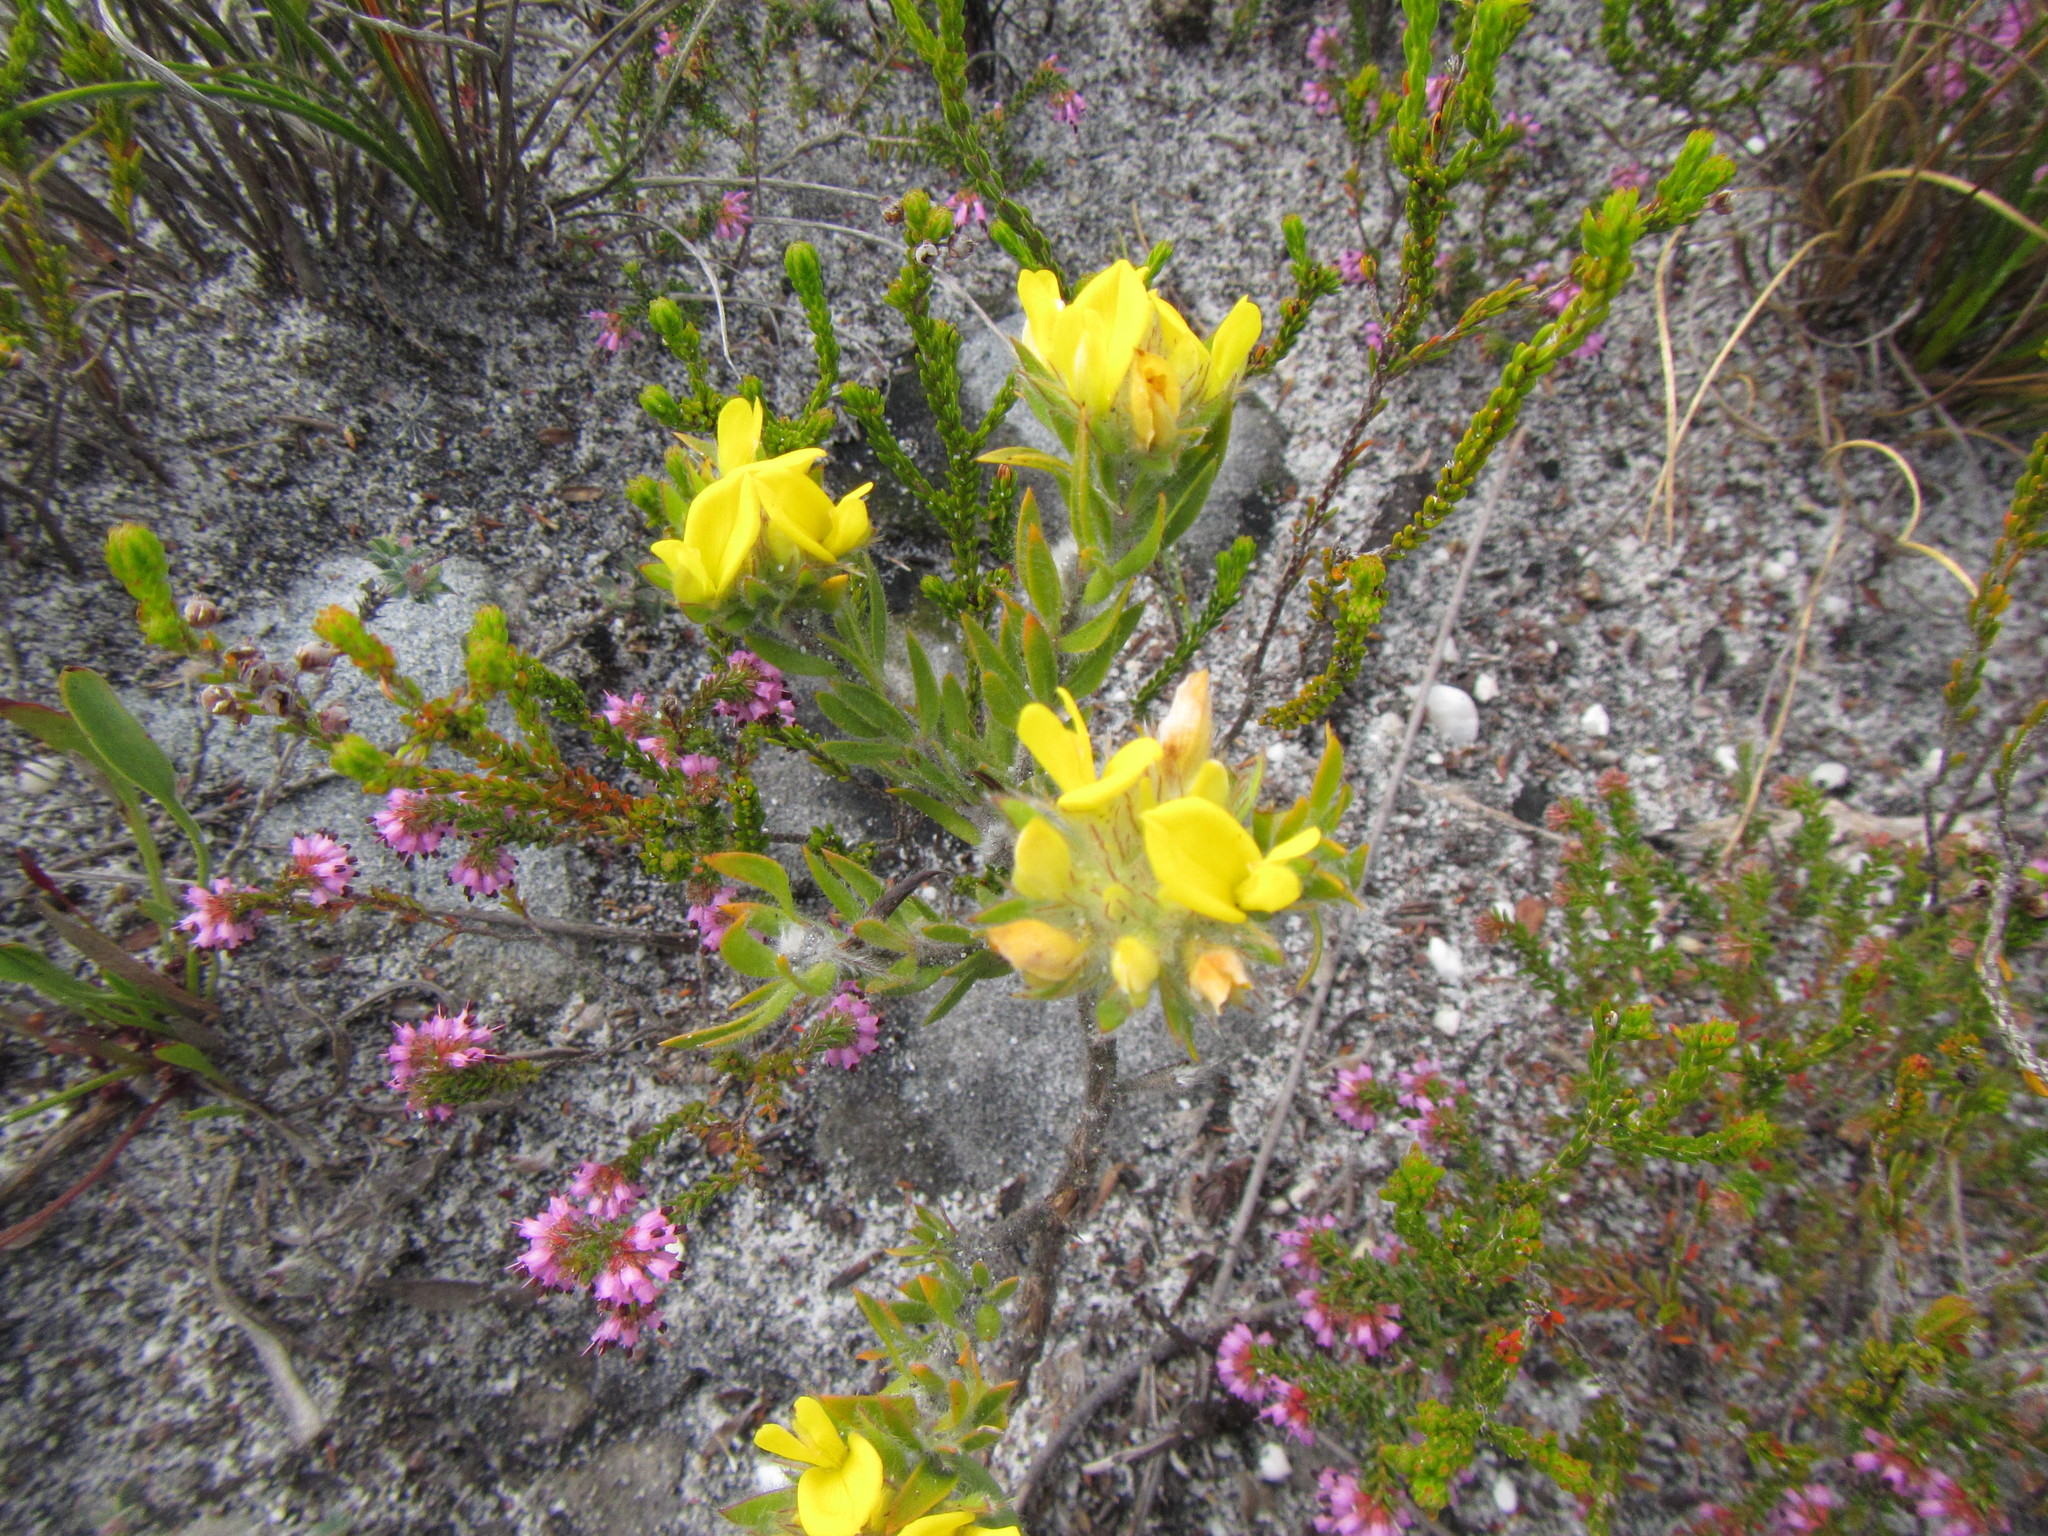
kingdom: Plantae
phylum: Tracheophyta
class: Magnoliopsida
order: Fabales
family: Fabaceae
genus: Aspalathus
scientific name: Aspalathus aspalathoides
